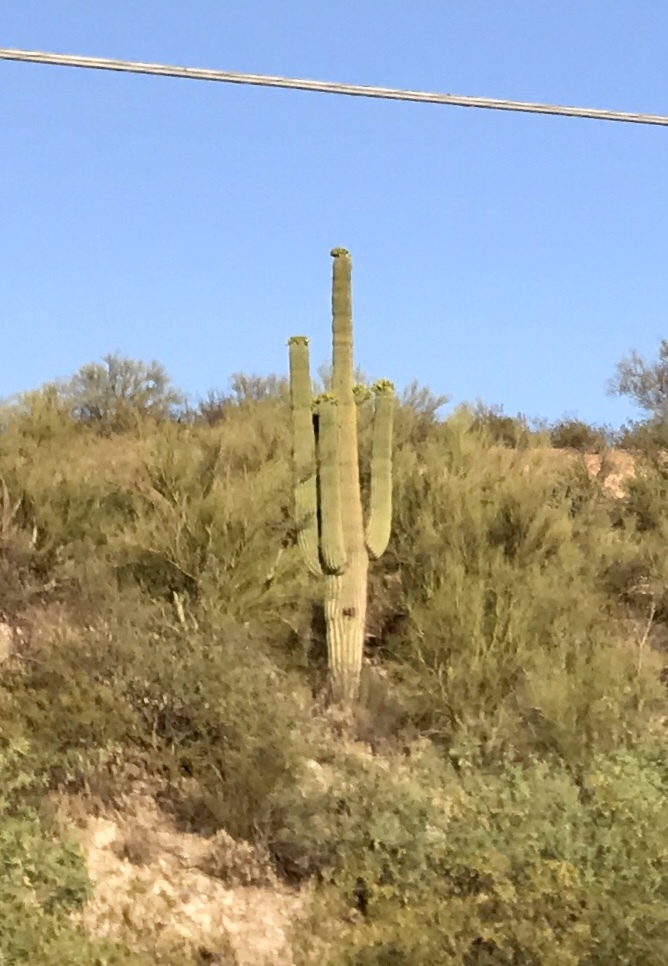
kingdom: Plantae
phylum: Tracheophyta
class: Magnoliopsida
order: Caryophyllales
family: Cactaceae
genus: Carnegiea
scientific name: Carnegiea gigantea
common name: Saguaro
